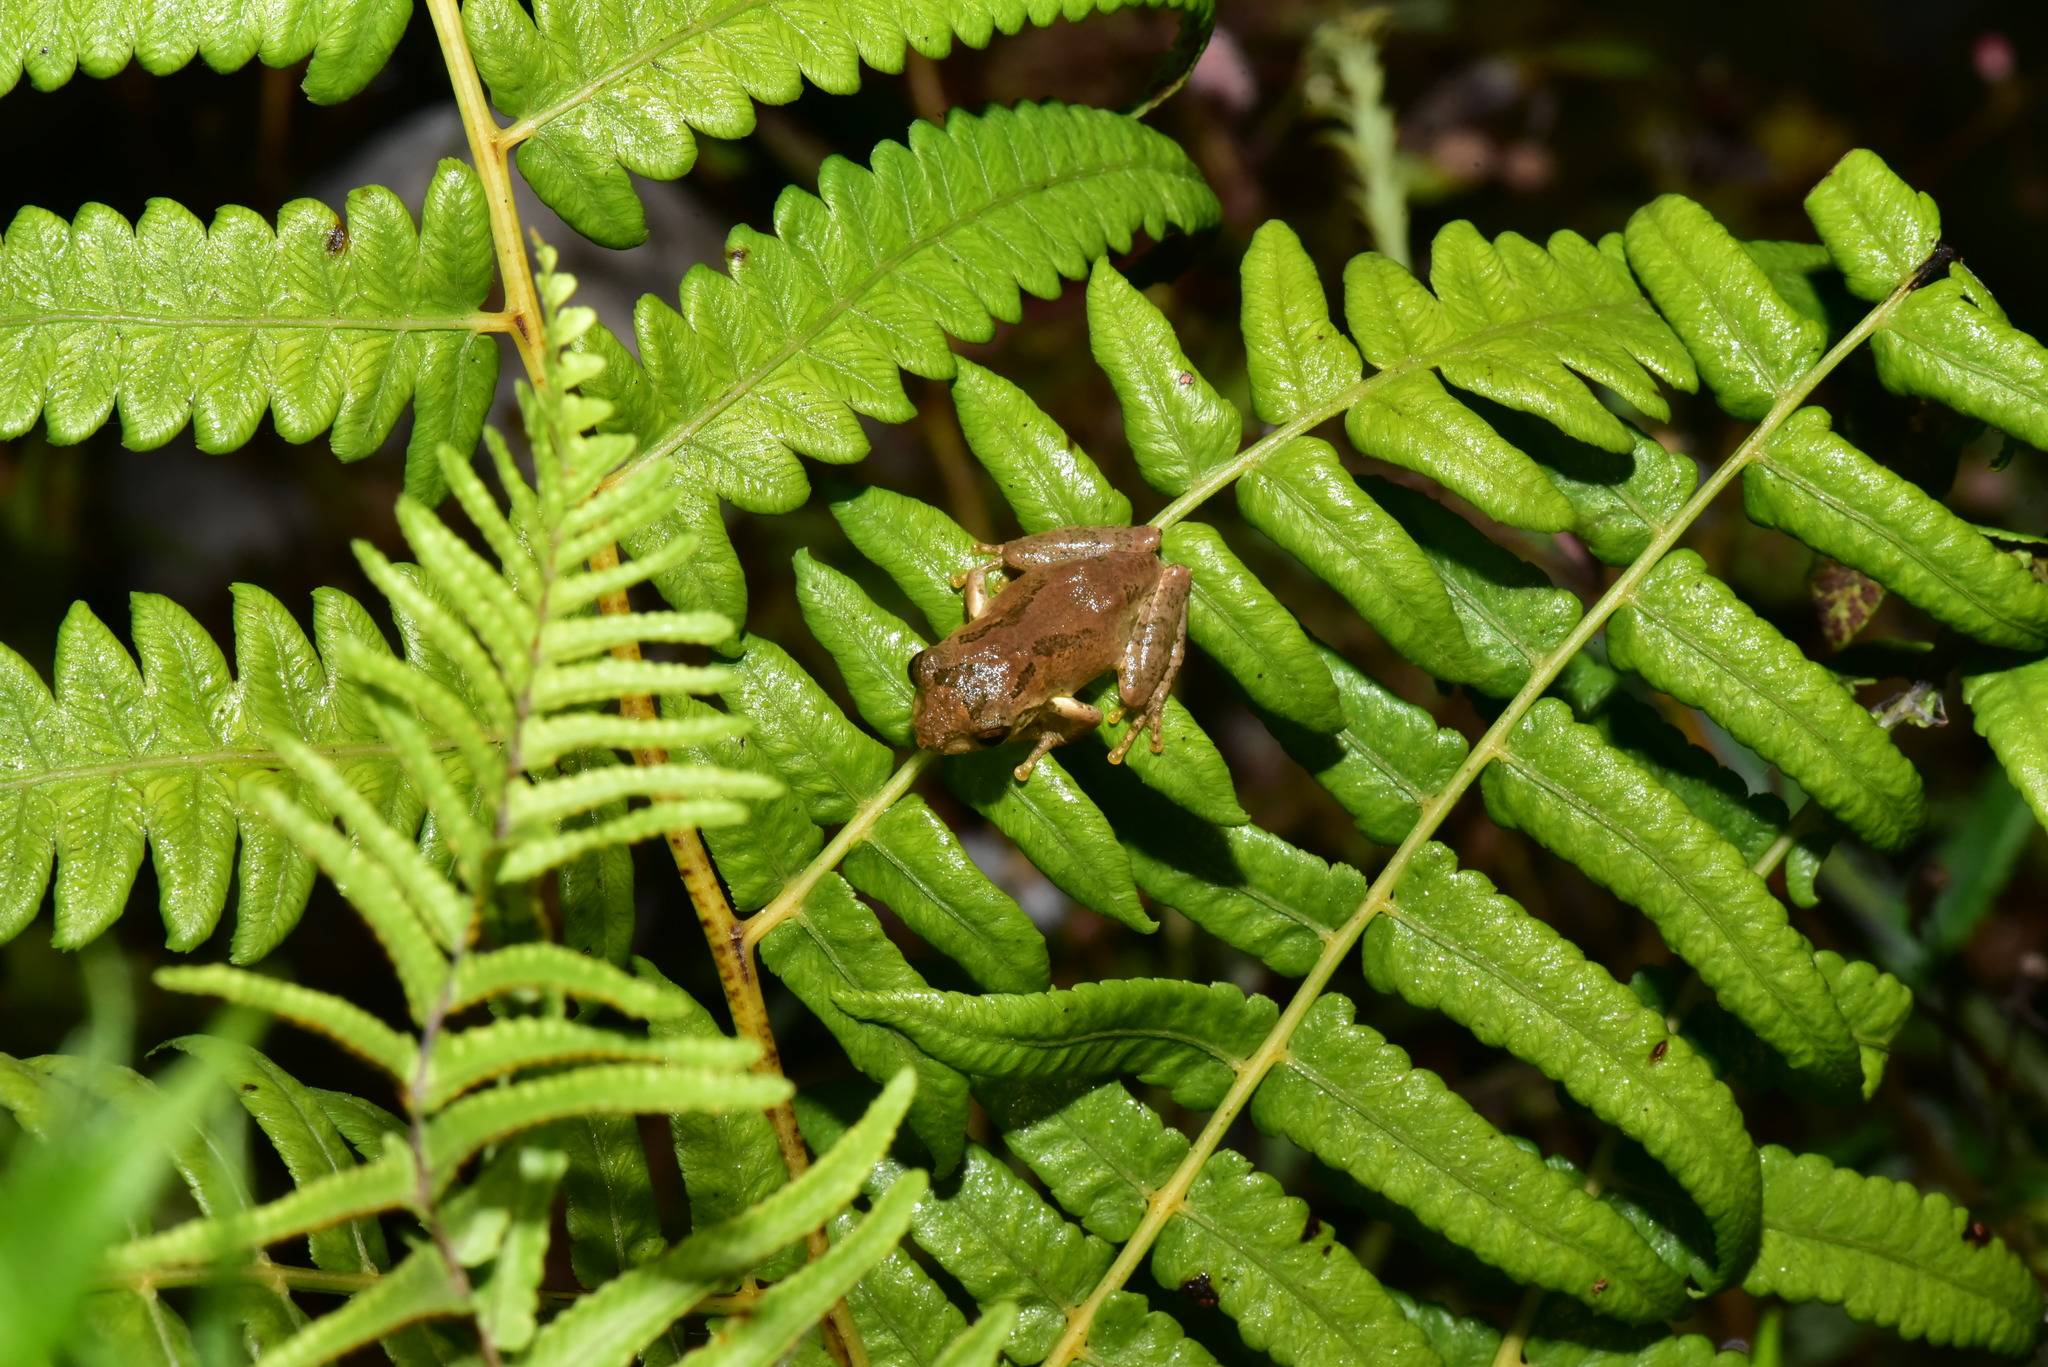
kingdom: Animalia
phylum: Chordata
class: Amphibia
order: Anura
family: Rhacophoridae
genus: Kurixalus
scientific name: Kurixalus idiootocus
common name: Temple treefrog
